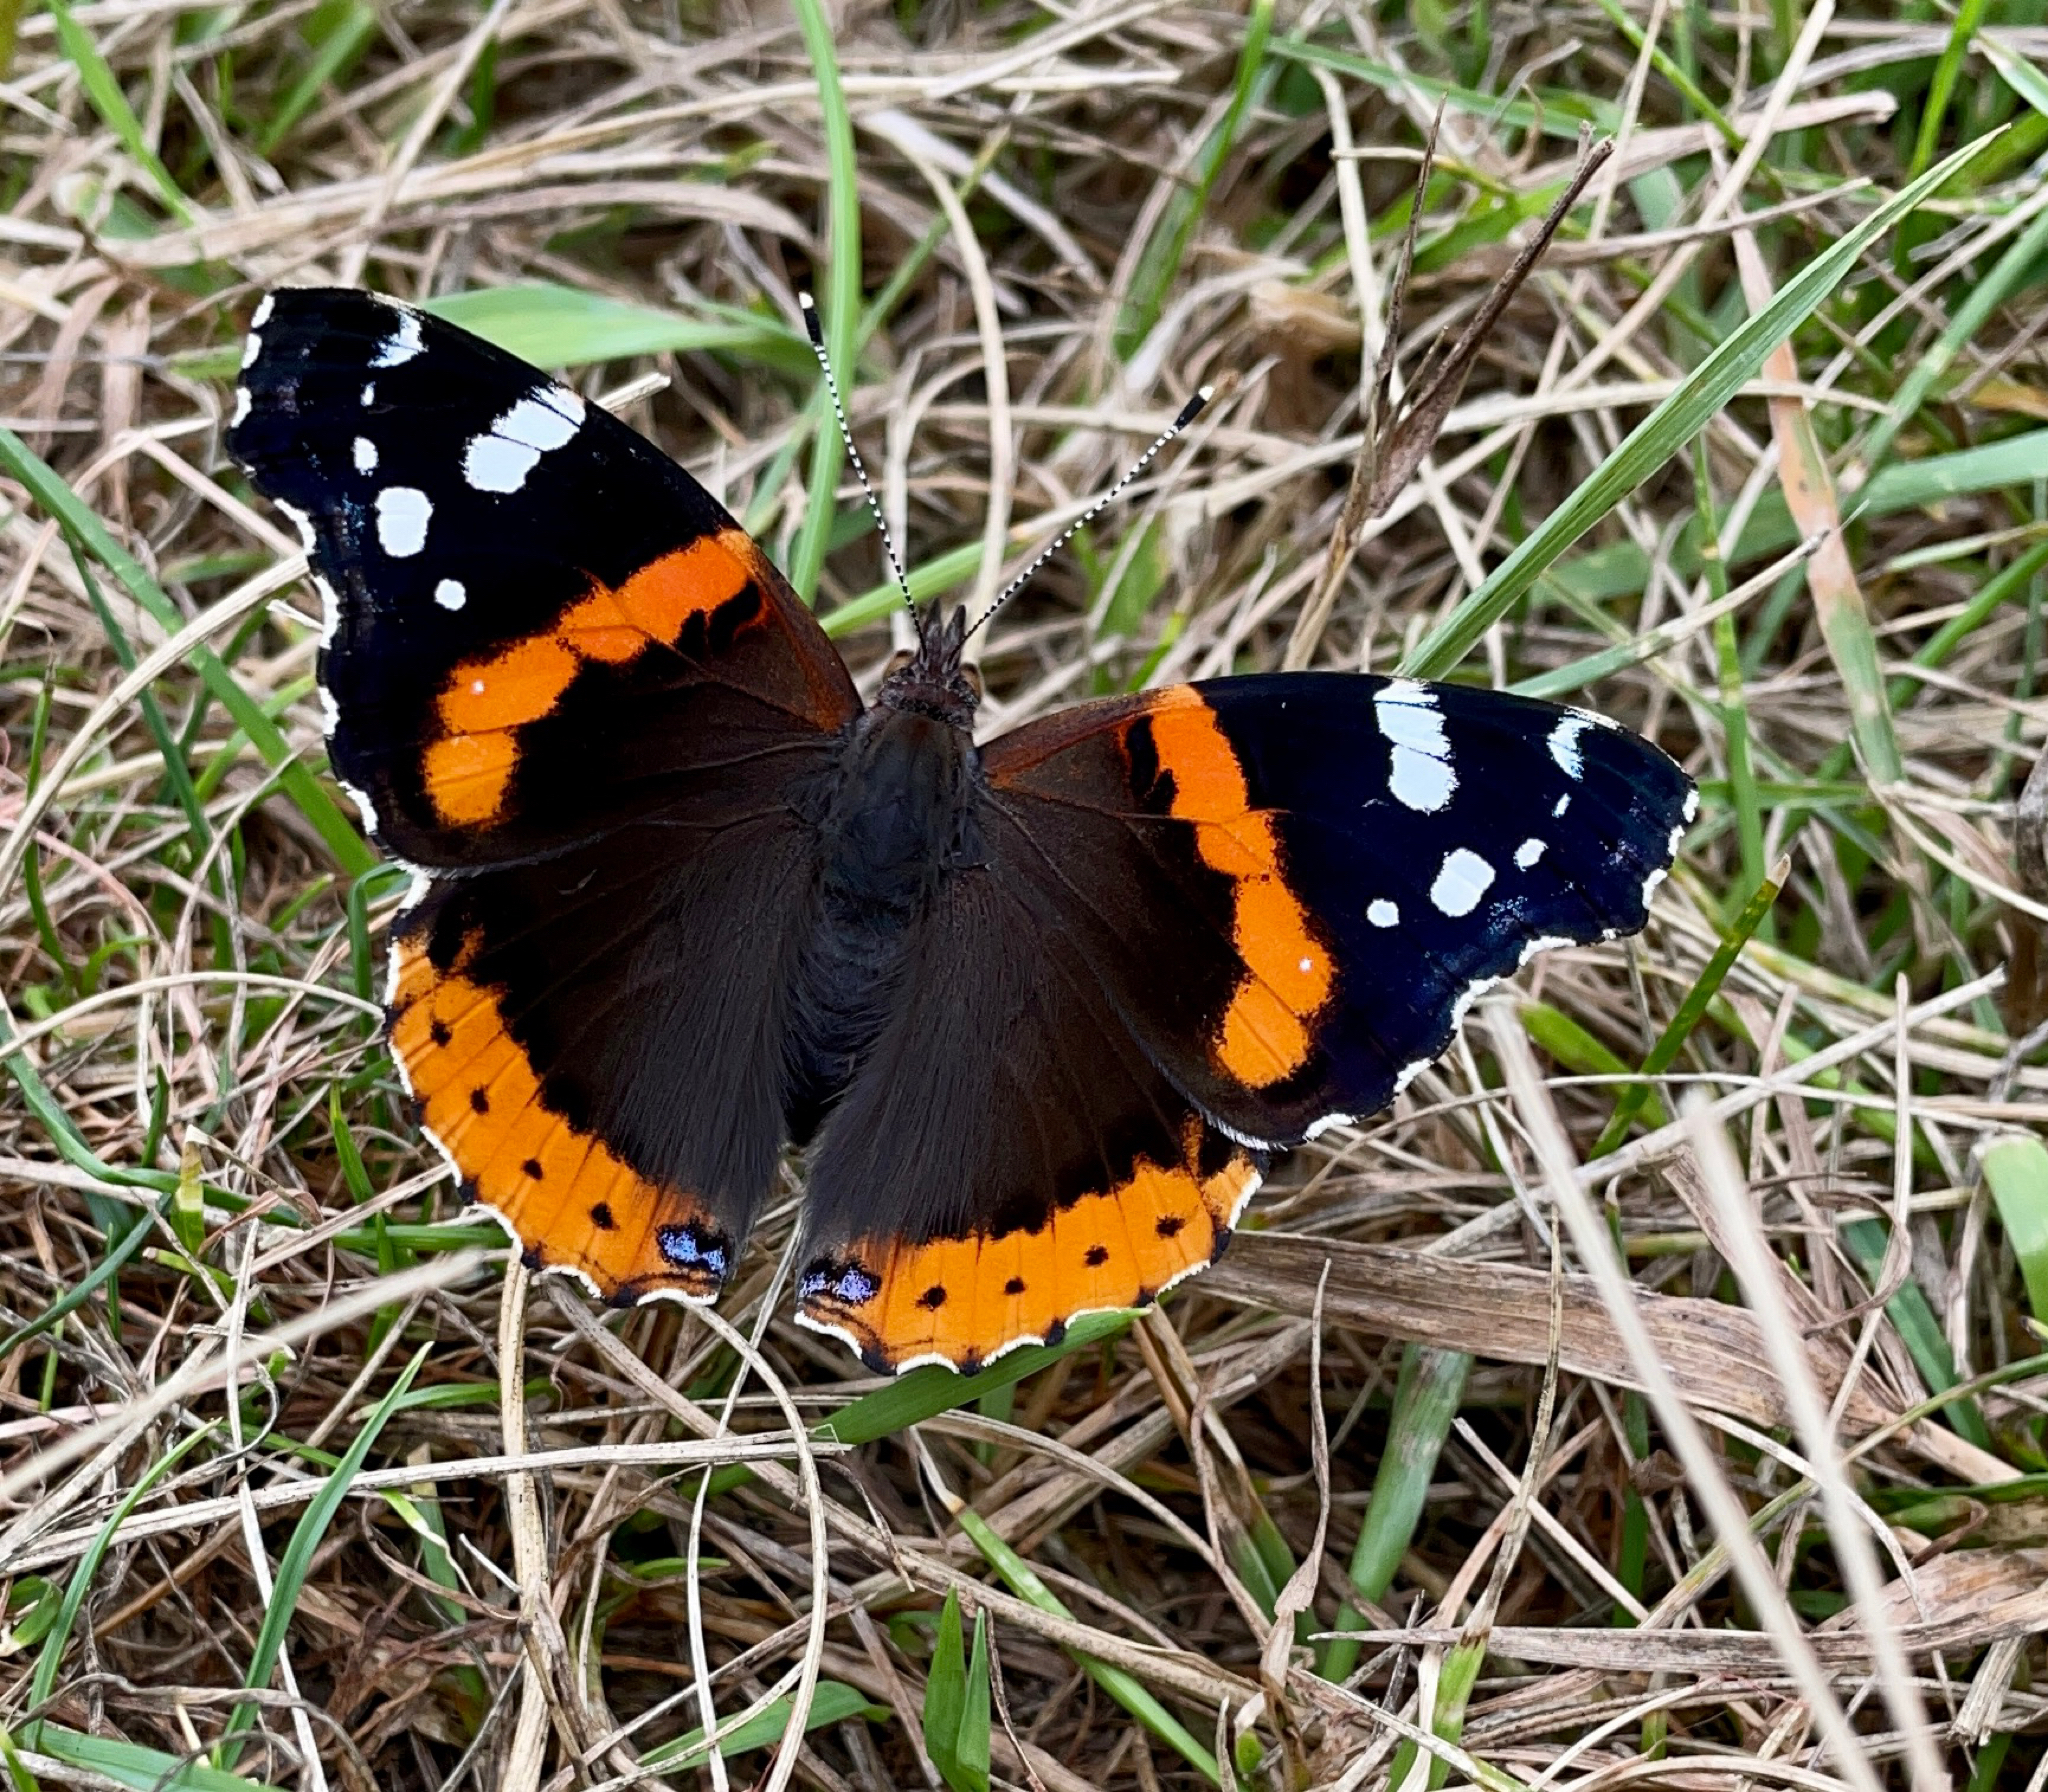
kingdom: Animalia
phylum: Arthropoda
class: Insecta
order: Lepidoptera
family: Nymphalidae
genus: Vanessa
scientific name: Vanessa atalanta
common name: Red admiral
